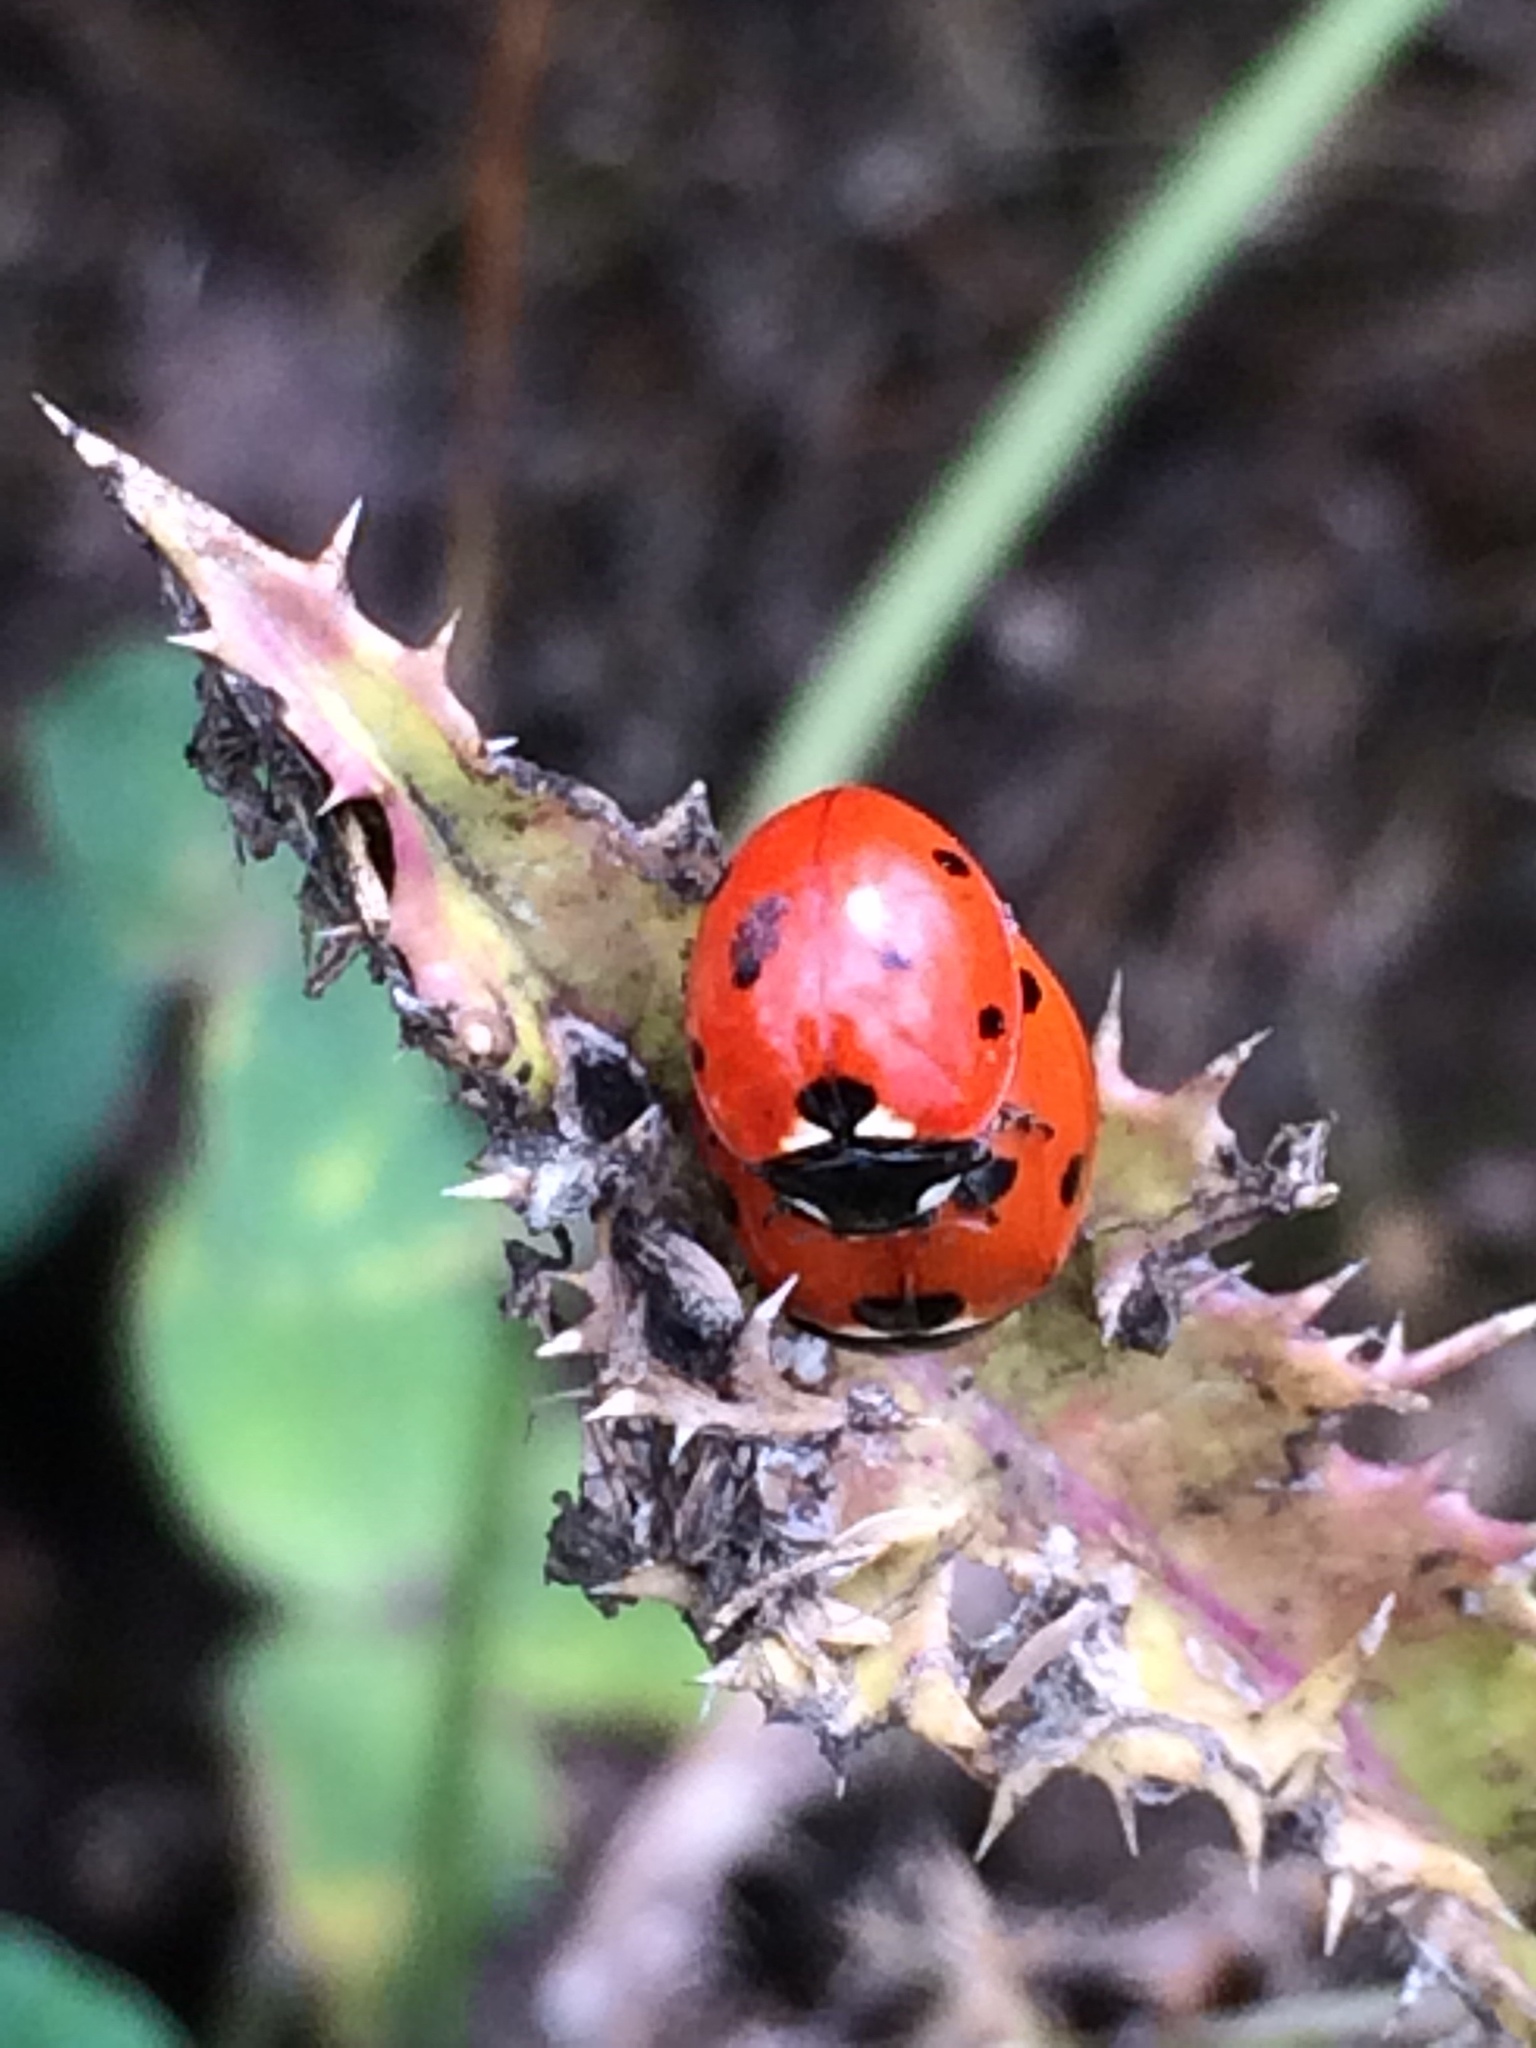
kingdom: Animalia
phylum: Arthropoda
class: Insecta
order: Coleoptera
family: Coccinellidae
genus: Coccinella
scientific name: Coccinella septempunctata
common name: Sevenspotted lady beetle
